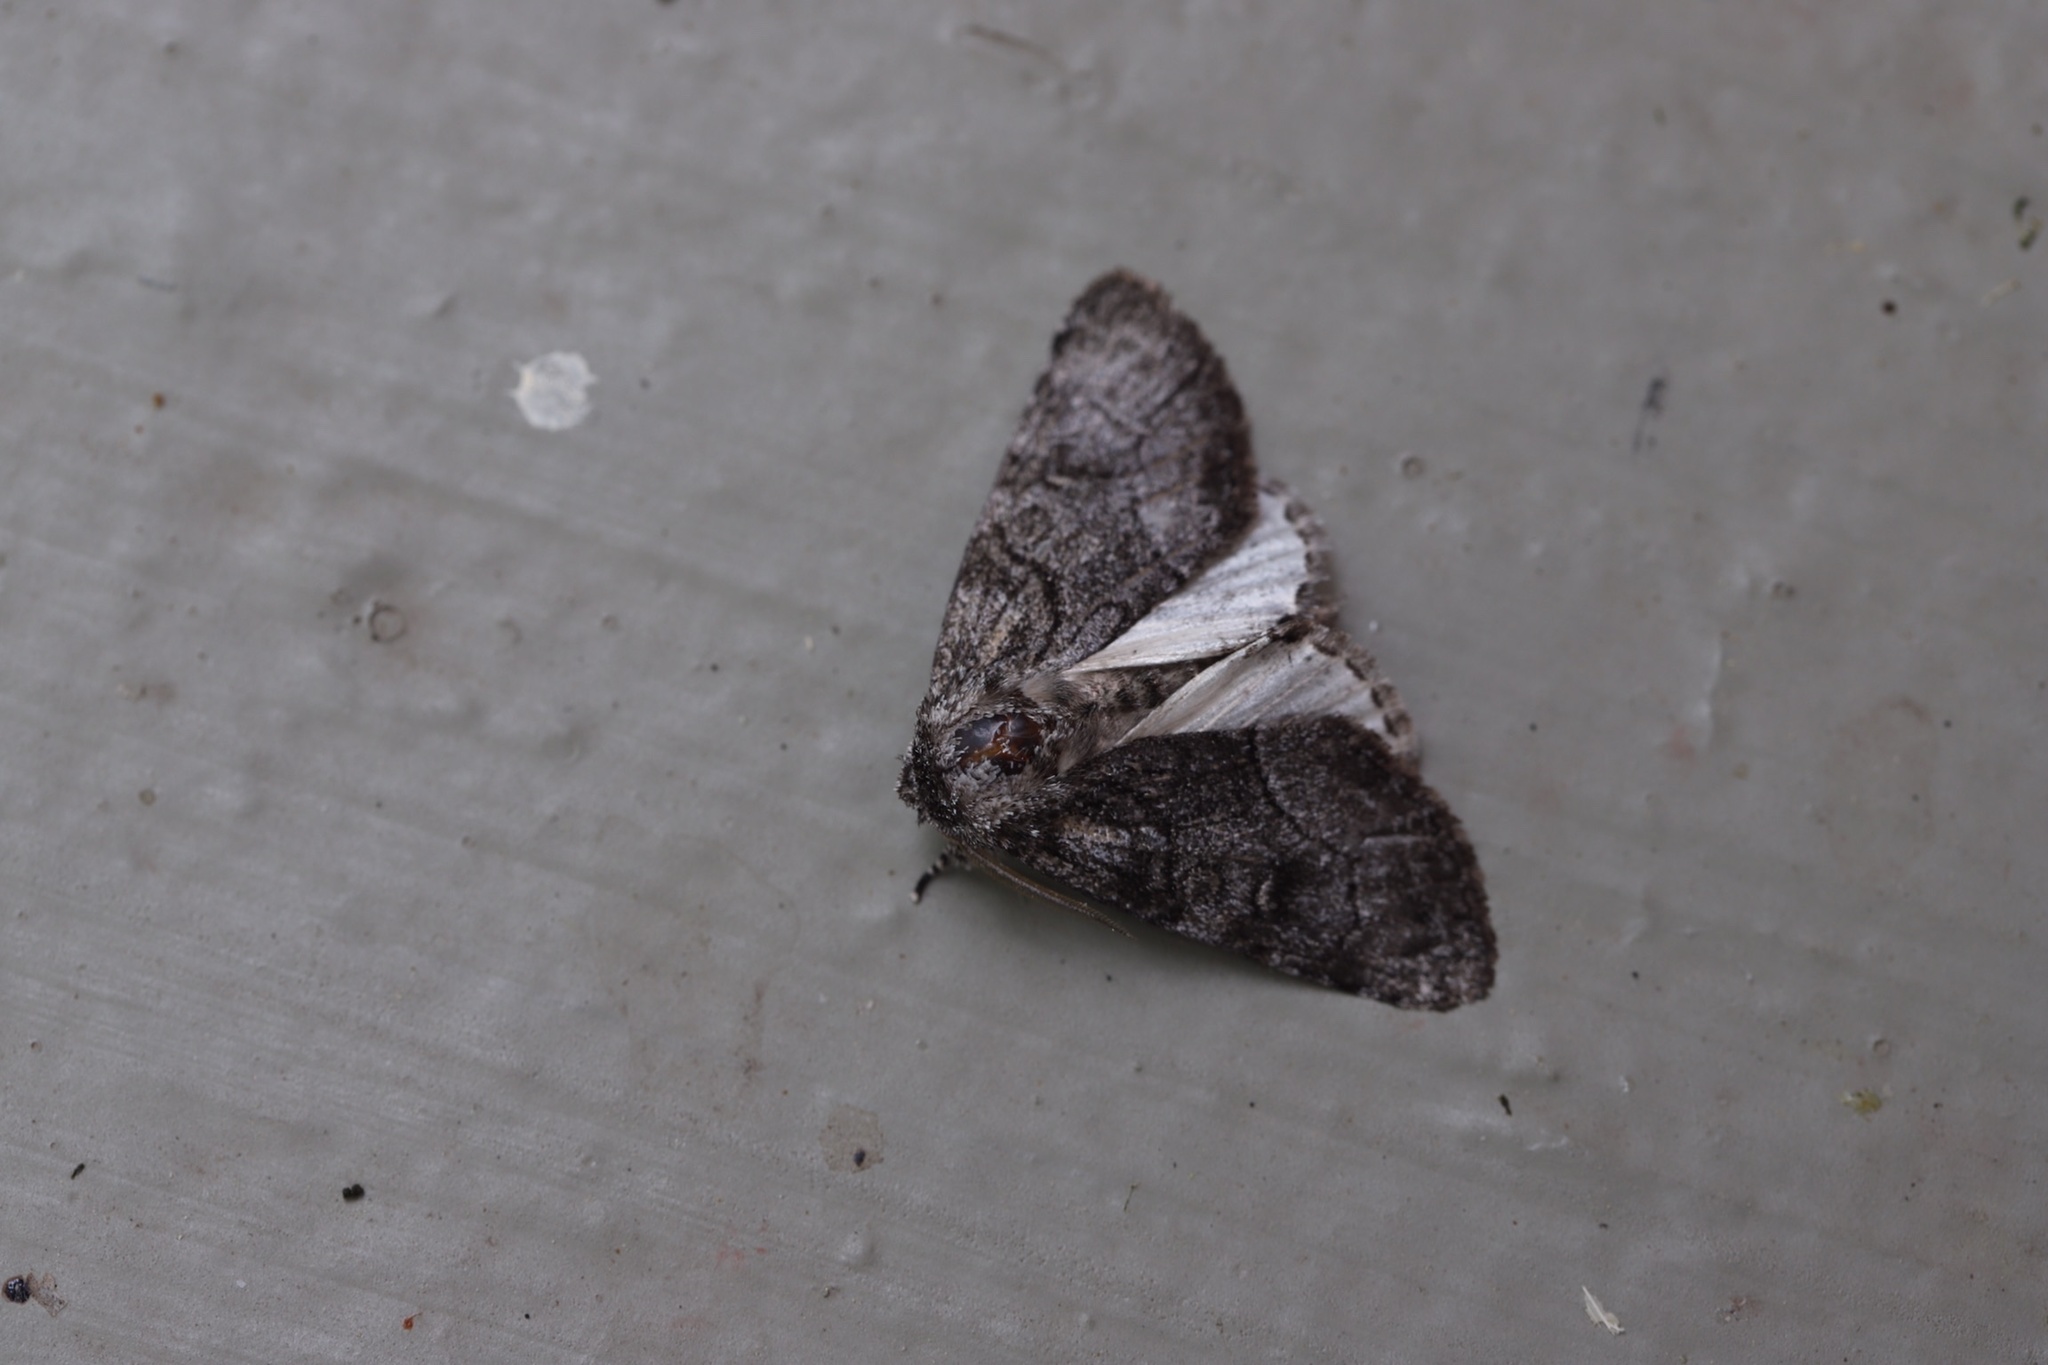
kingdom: Animalia
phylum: Arthropoda
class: Insecta
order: Lepidoptera
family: Noctuidae
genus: Raphia
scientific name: Raphia frater
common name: Brother
